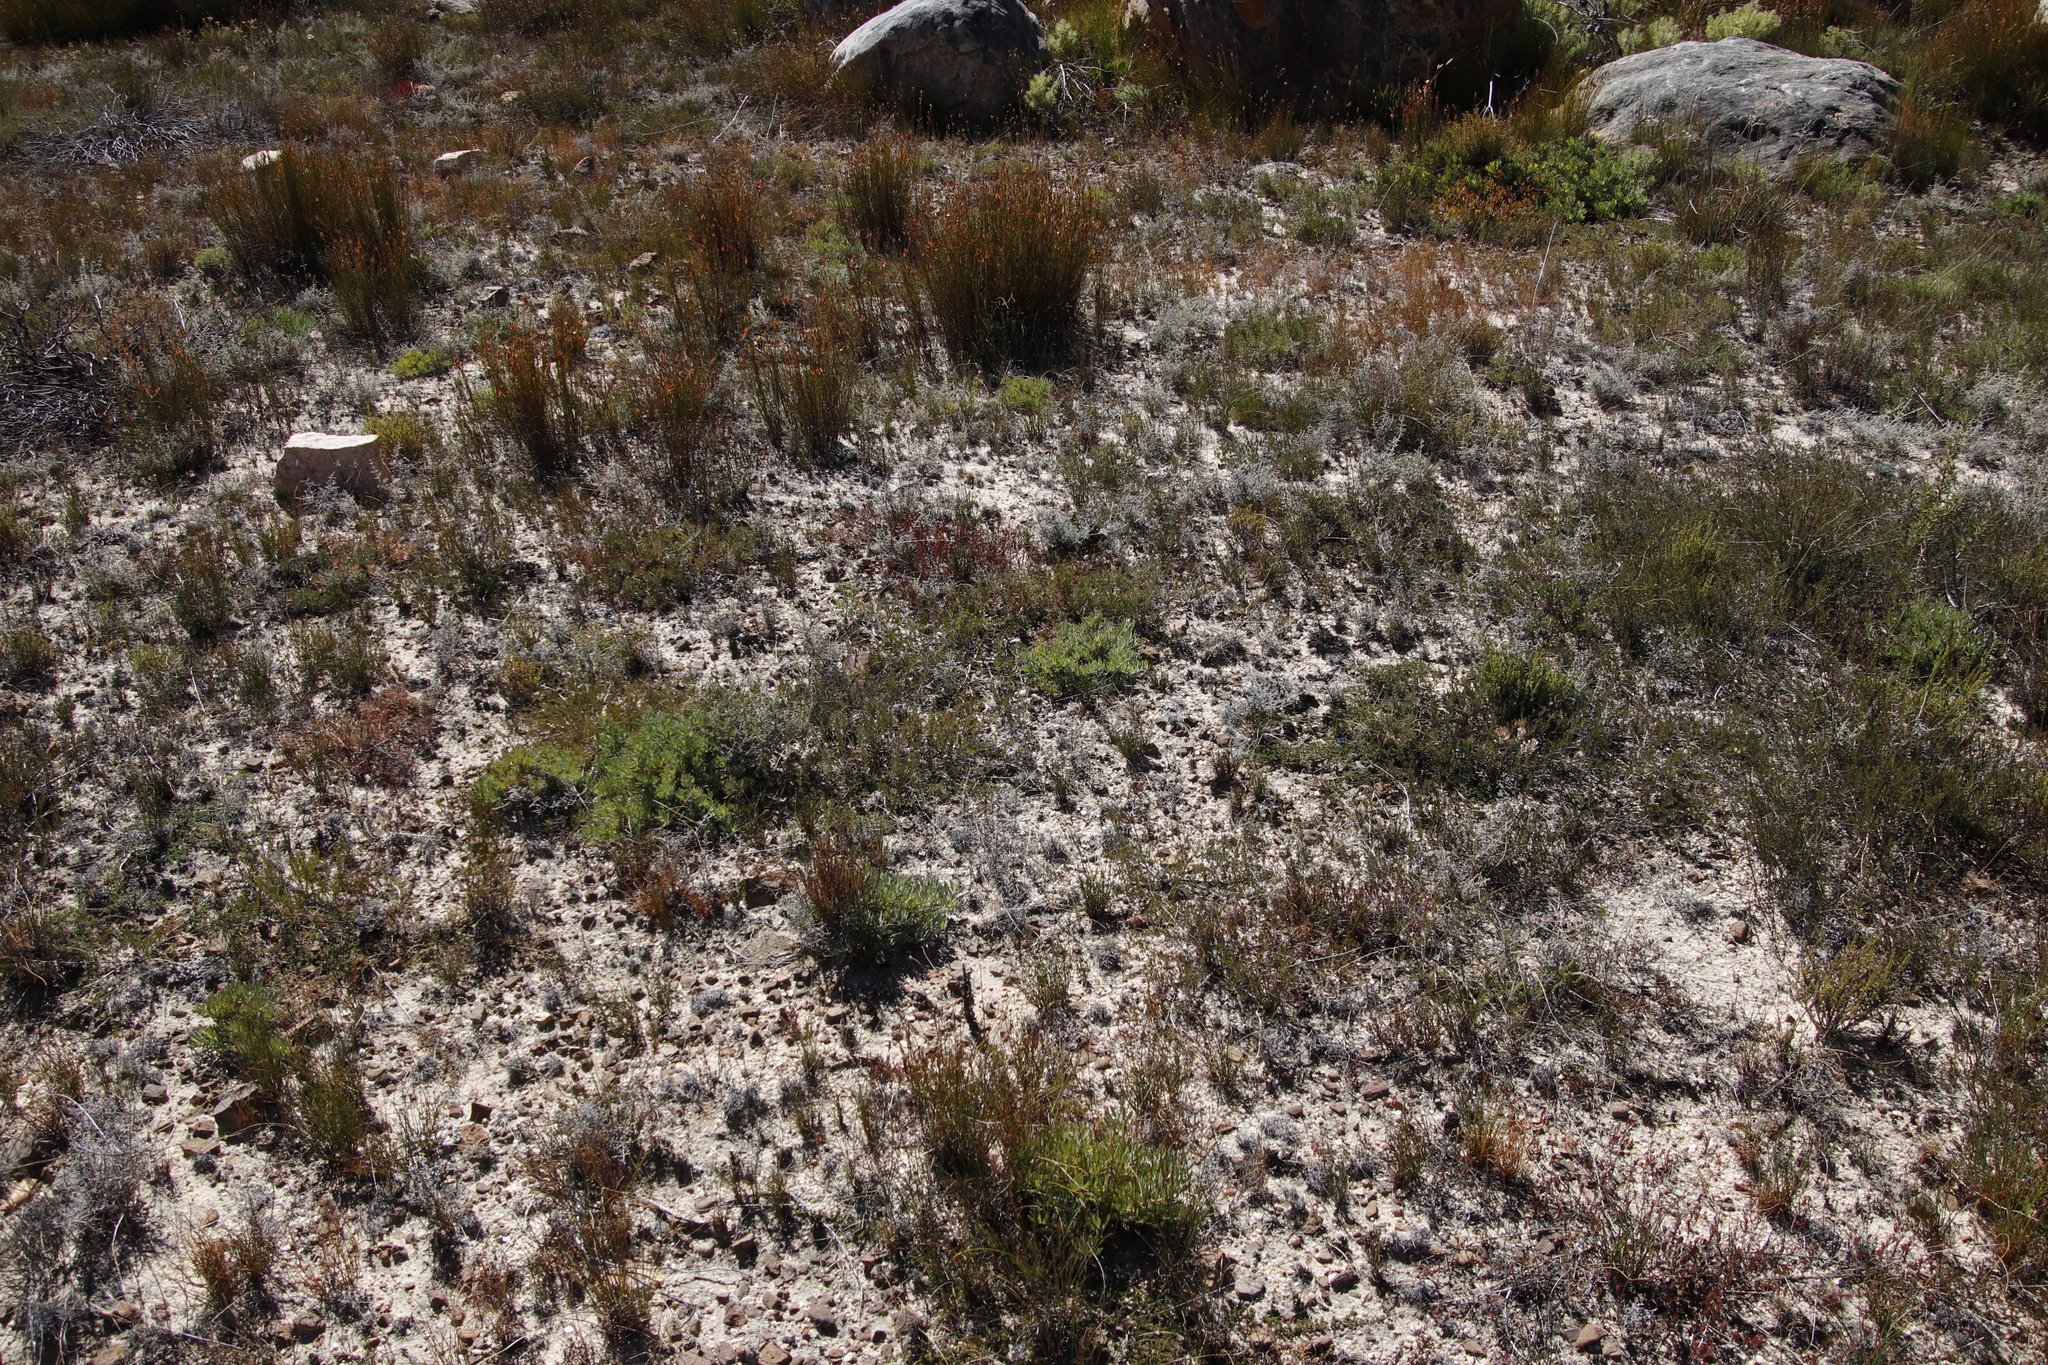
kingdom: Plantae
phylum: Tracheophyta
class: Magnoliopsida
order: Proteales
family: Proteaceae
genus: Leucadendron
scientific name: Leucadendron glaberrimum
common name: Common oily conebush
